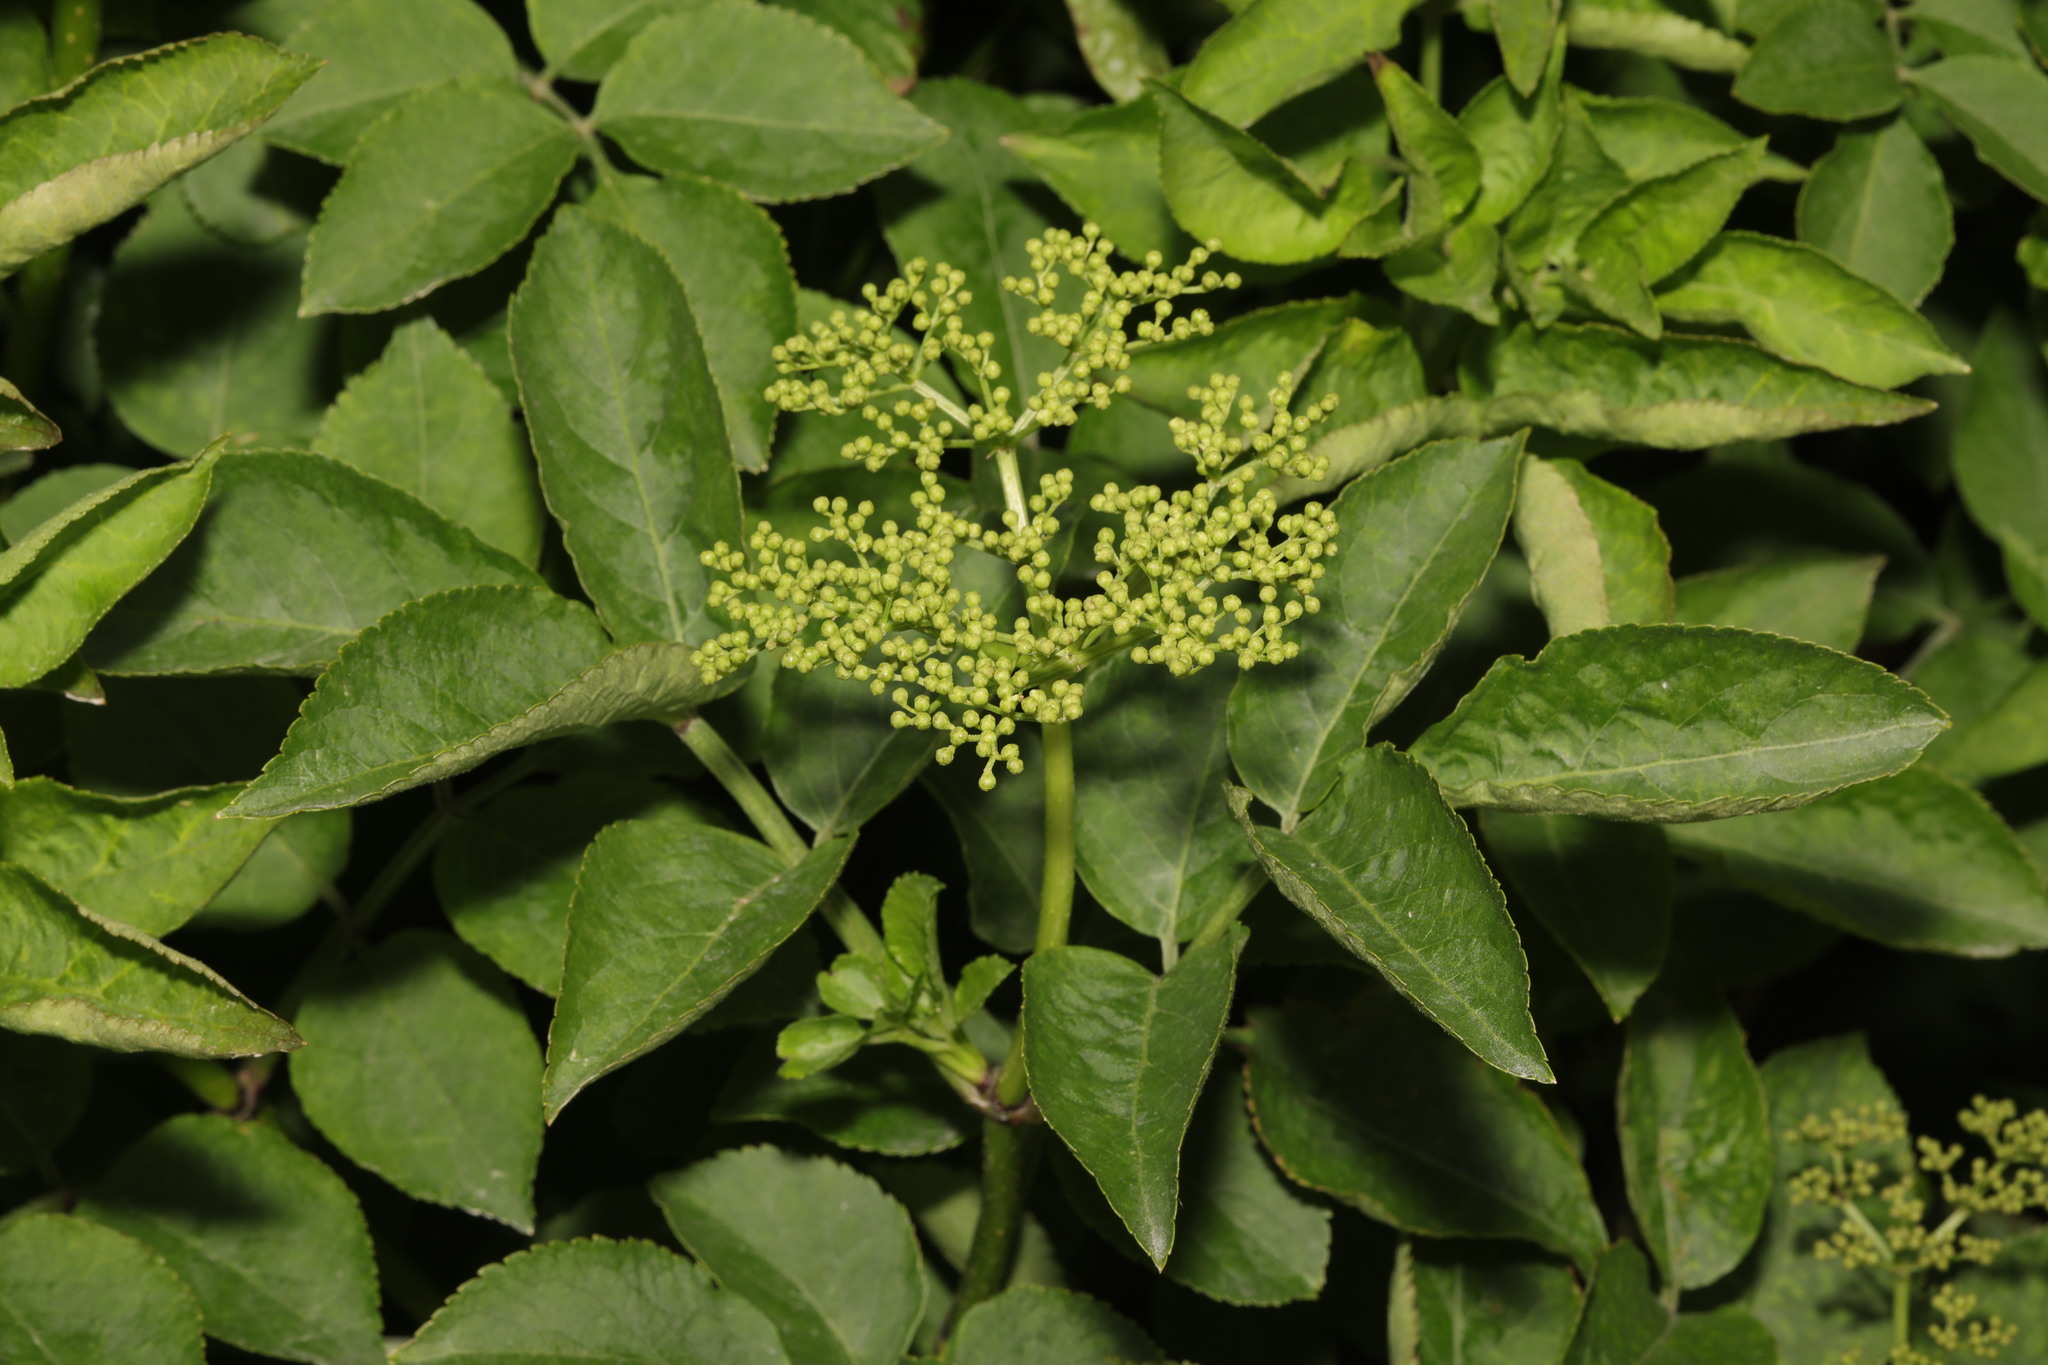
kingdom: Plantae
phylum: Tracheophyta
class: Magnoliopsida
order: Dipsacales
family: Viburnaceae
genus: Sambucus
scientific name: Sambucus nigra
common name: Elder
